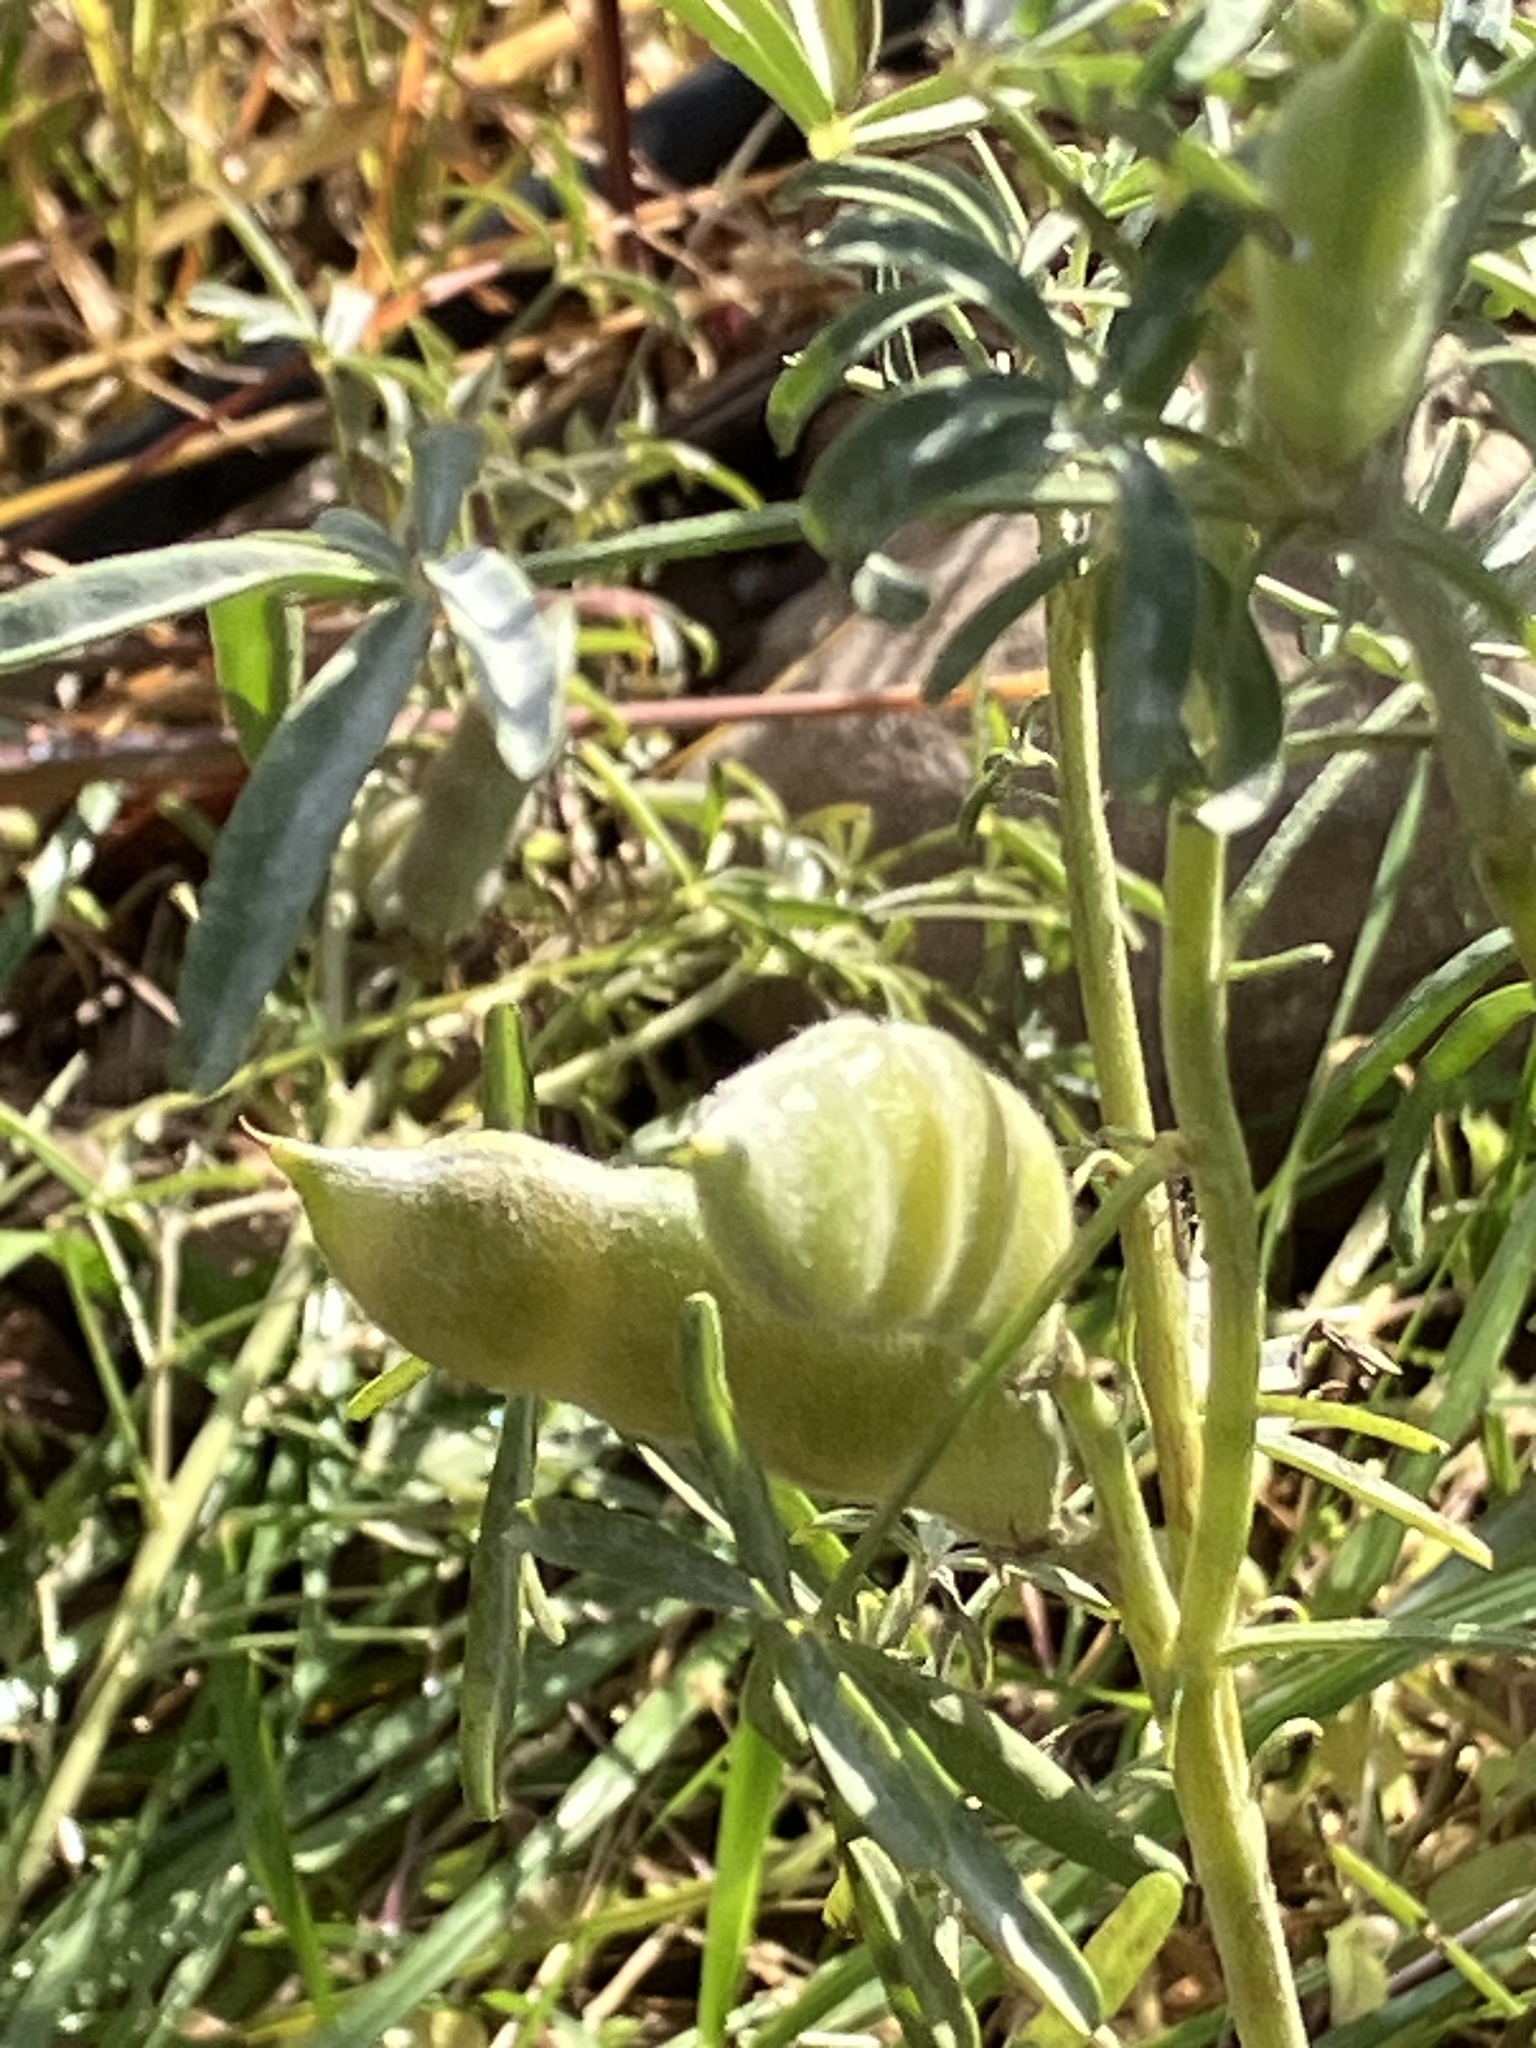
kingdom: Plantae
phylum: Tracheophyta
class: Magnoliopsida
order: Fabales
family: Fabaceae
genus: Lupinus
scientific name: Lupinus angustifolius
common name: Narrow-leaved lupin
